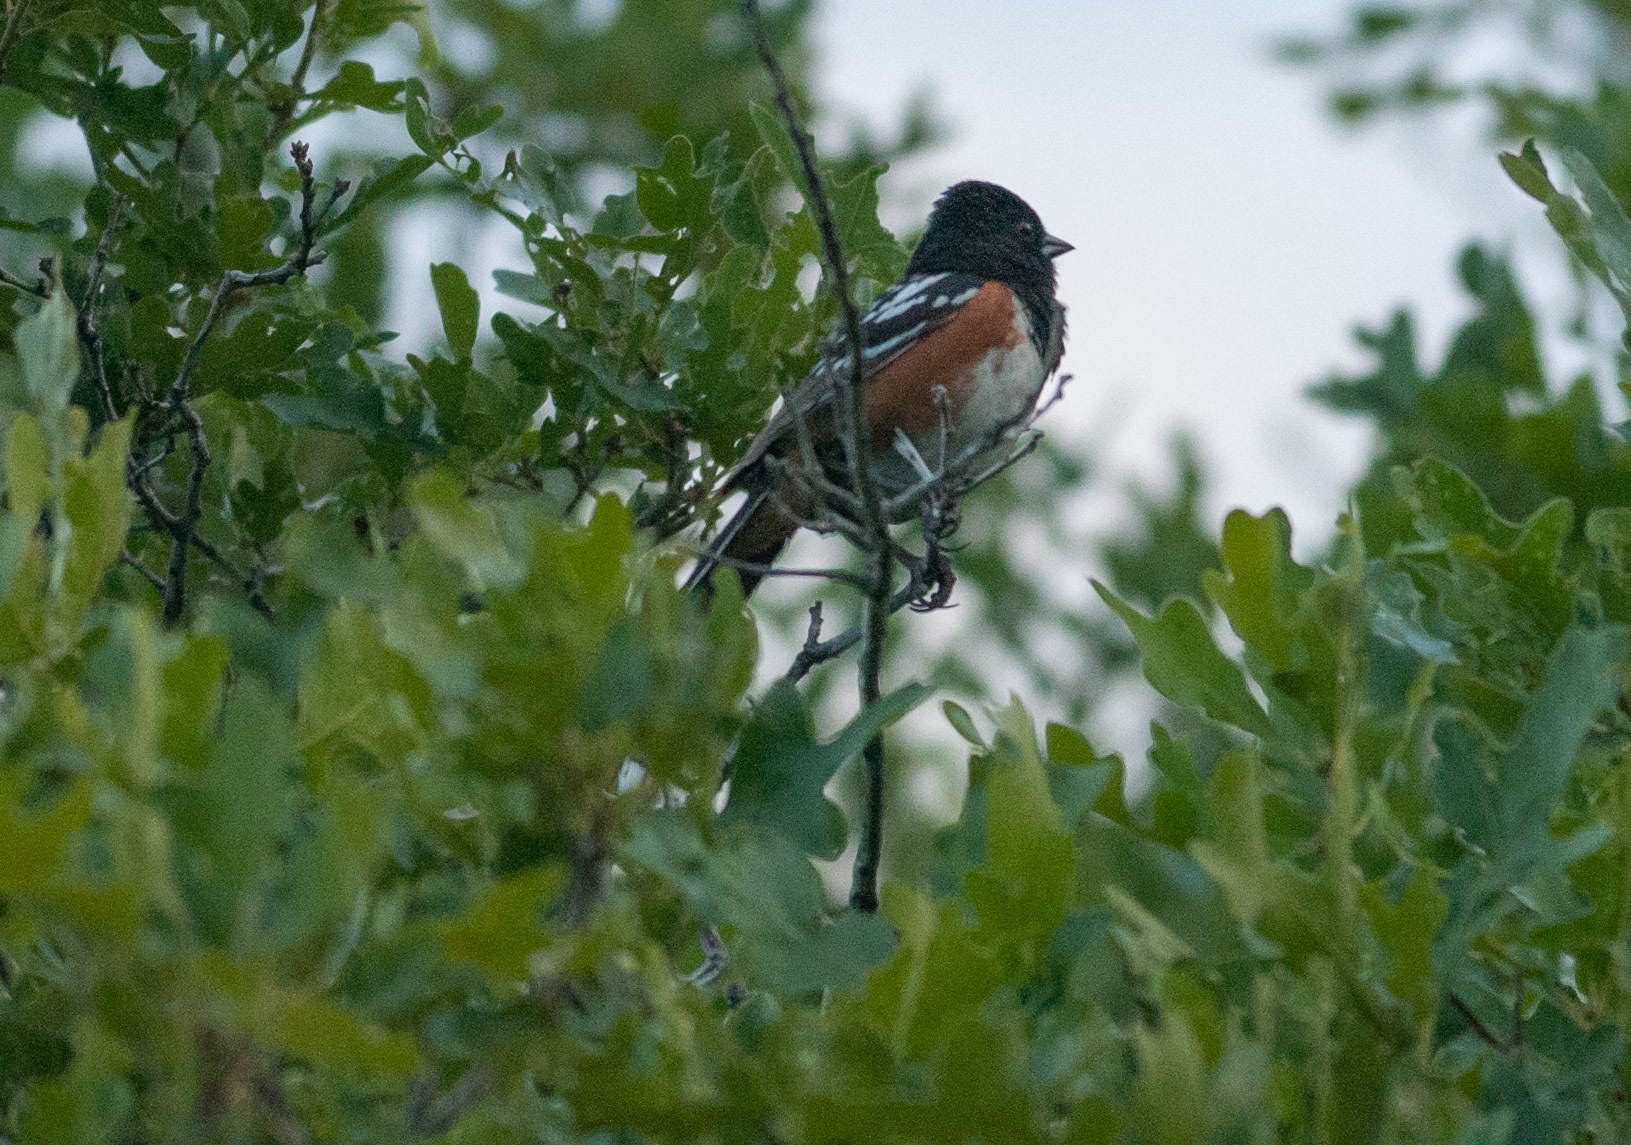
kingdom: Animalia
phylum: Chordata
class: Aves
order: Passeriformes
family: Passerellidae
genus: Pipilo
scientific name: Pipilo maculatus
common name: Spotted towhee
